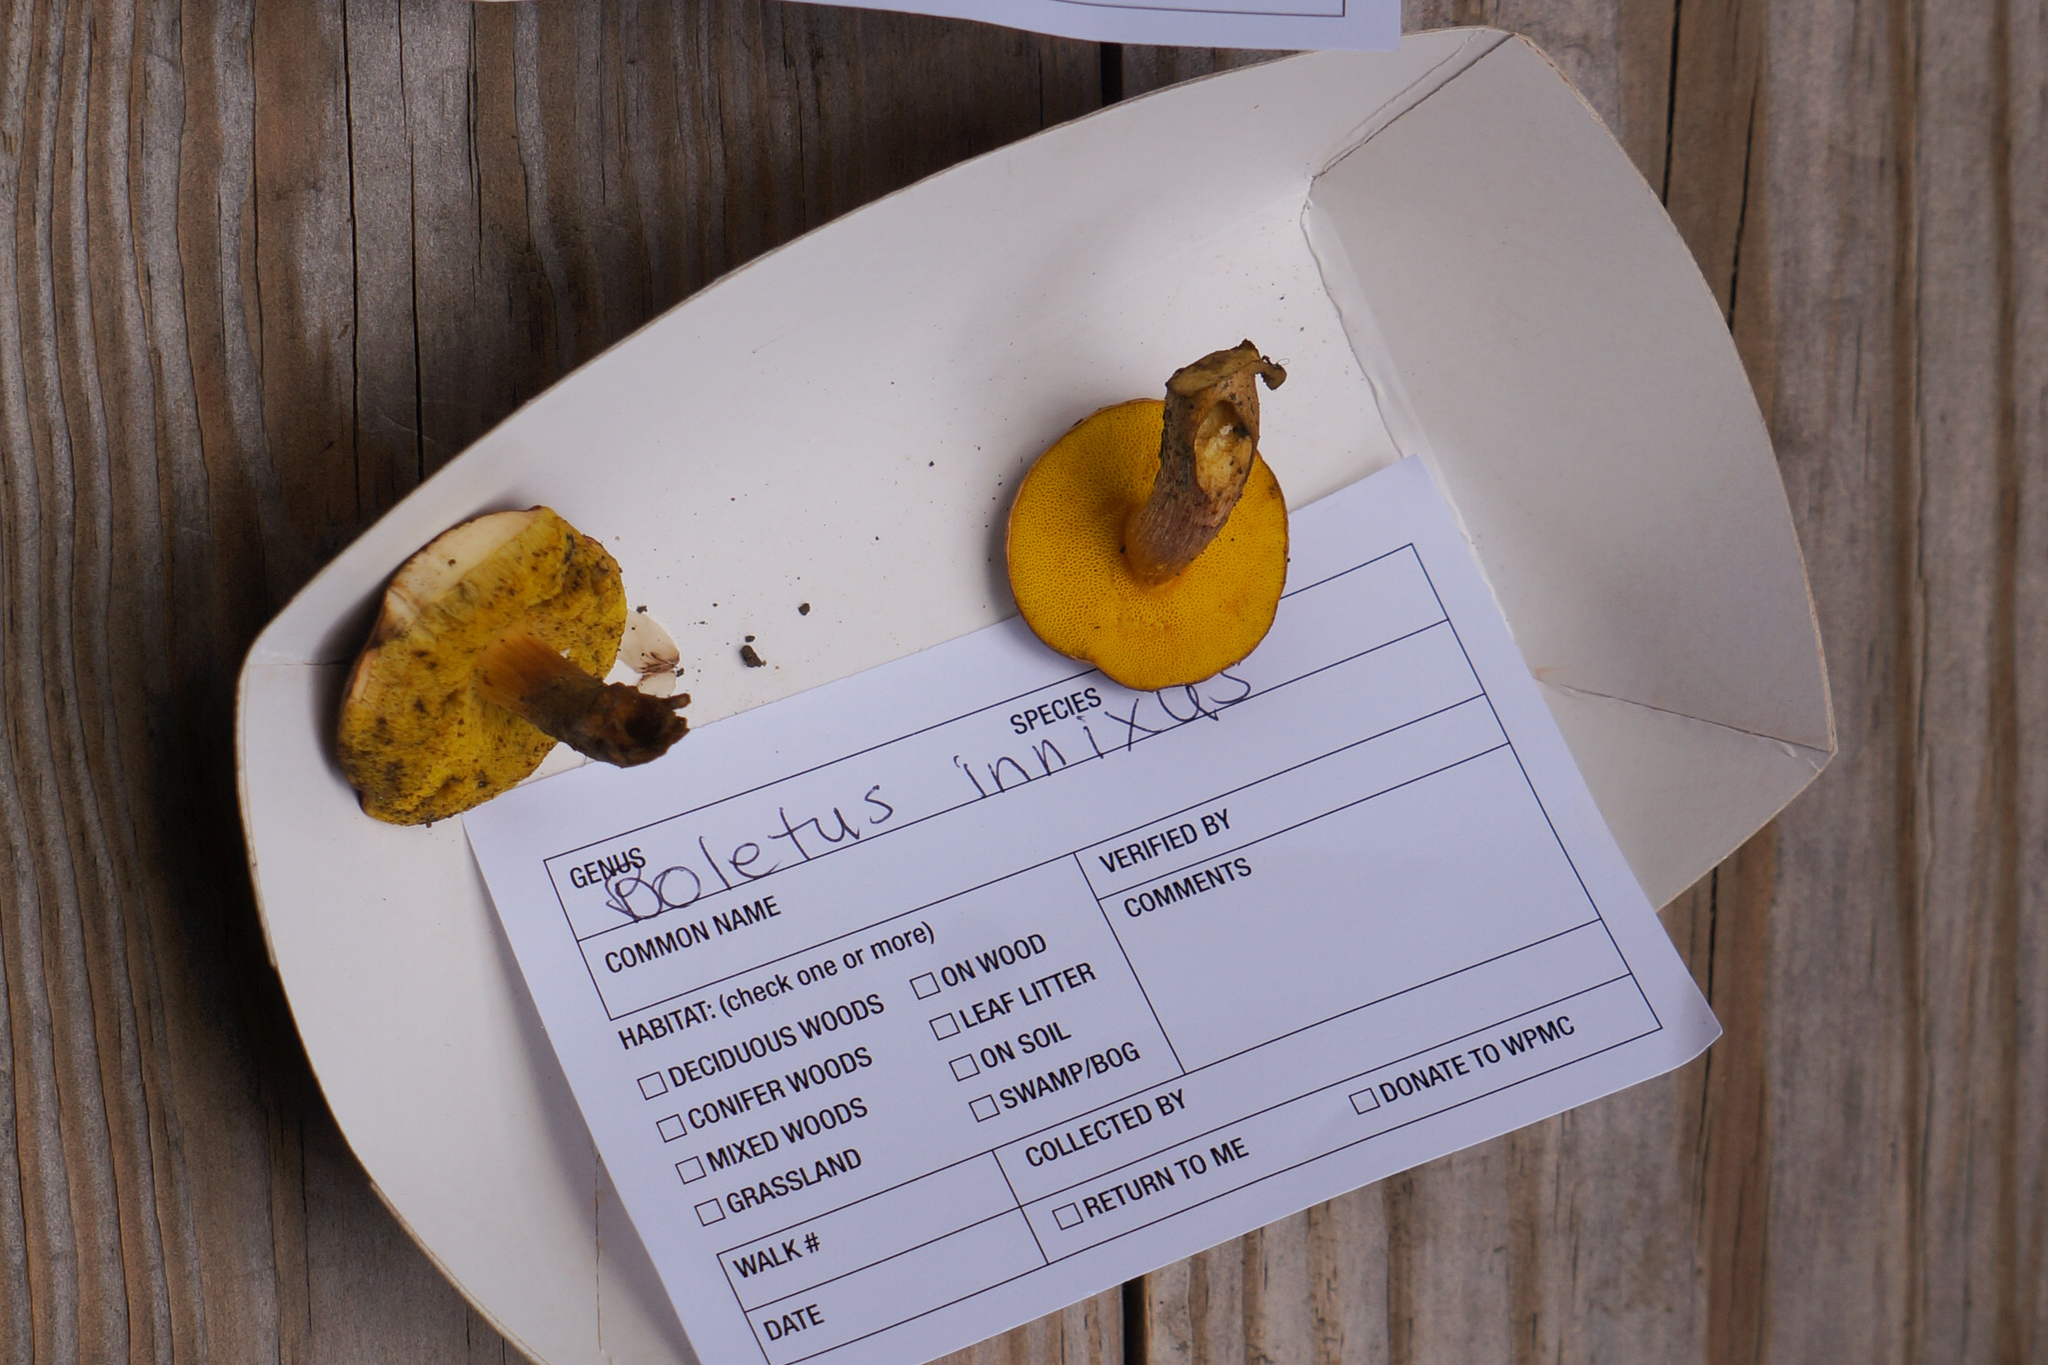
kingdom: Fungi
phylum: Basidiomycota
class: Agaricomycetes
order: Boletales
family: Boletaceae
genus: Aureoboletus
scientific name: Aureoboletus innixus
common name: Clustered brown bolete
